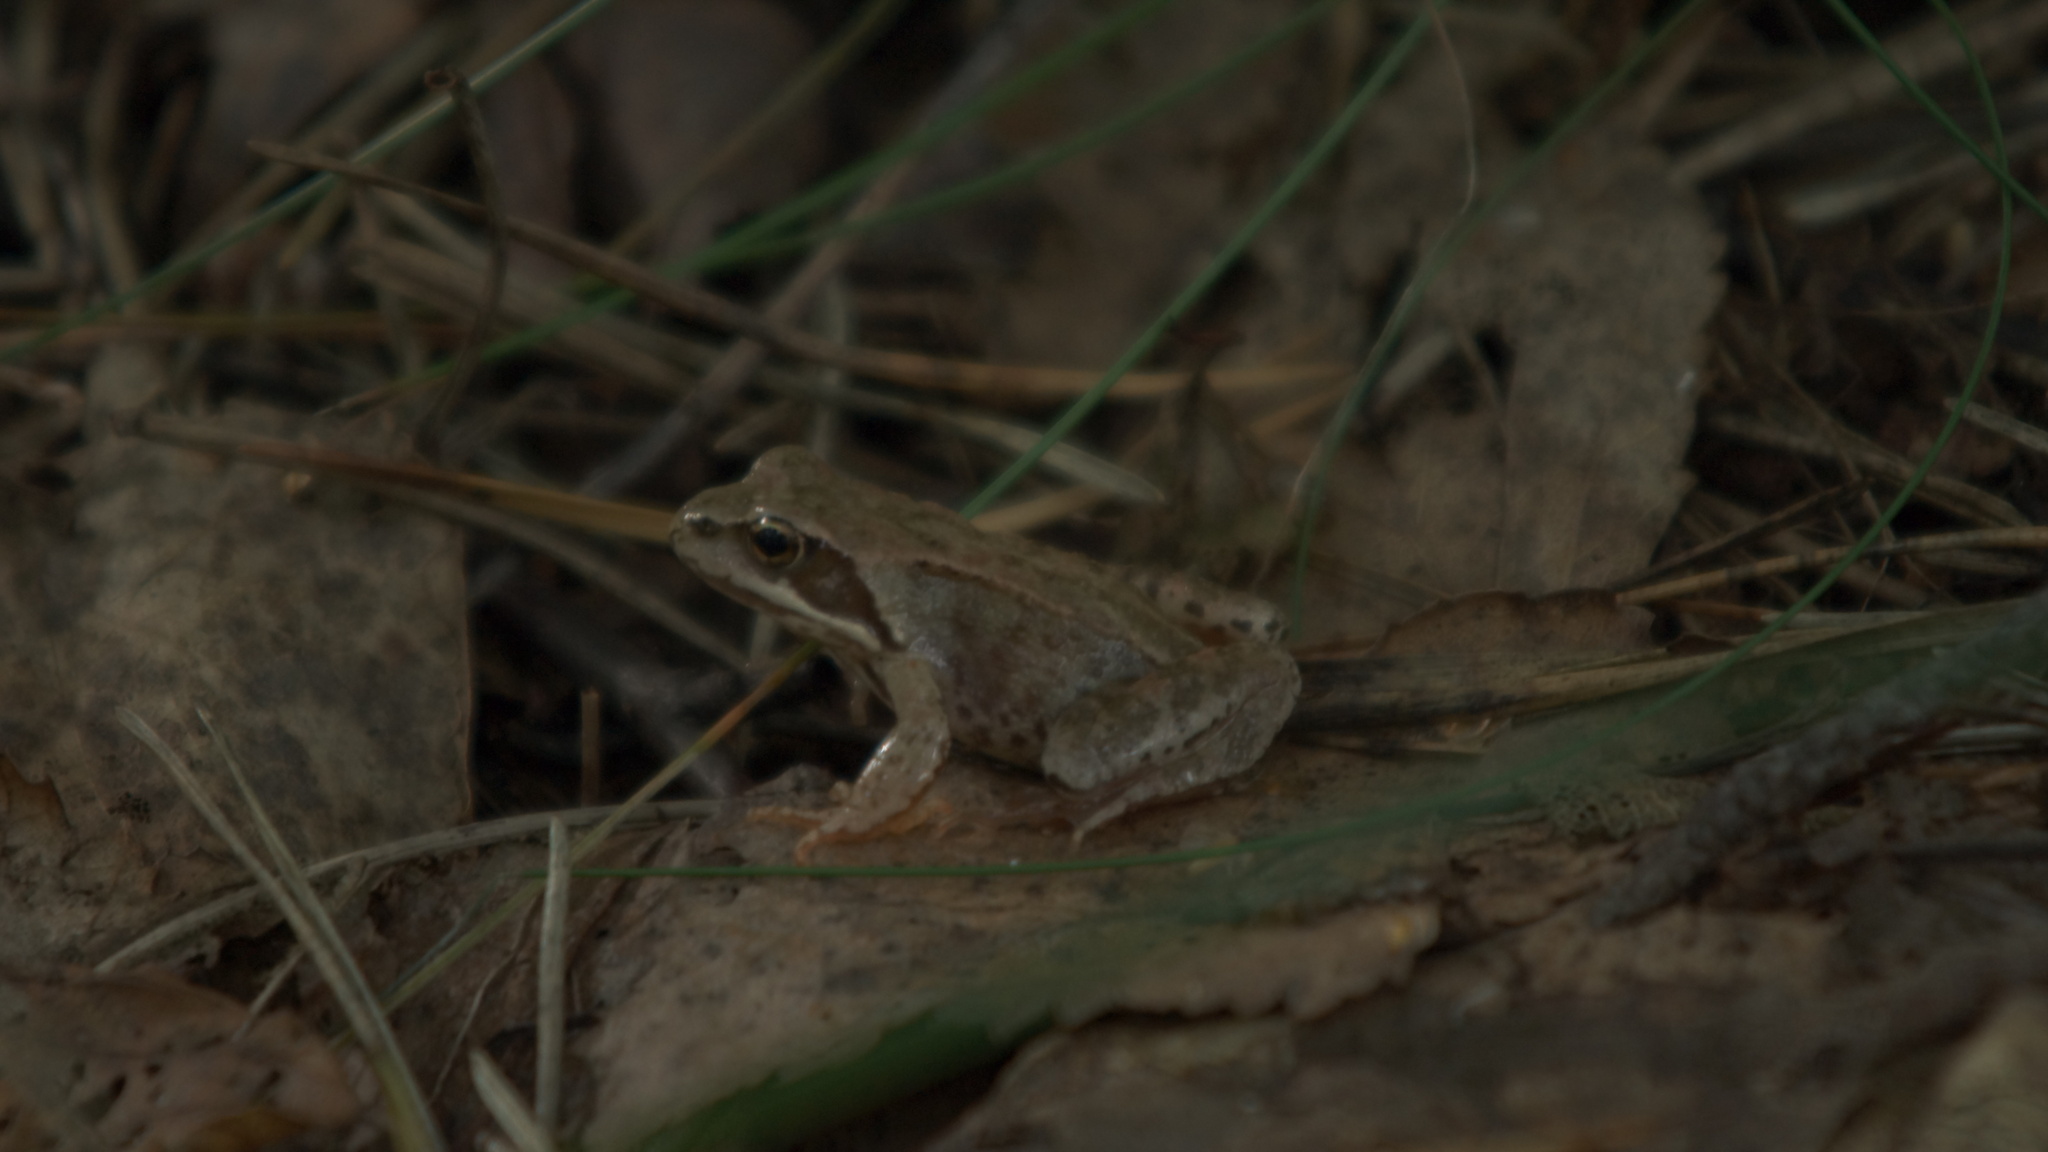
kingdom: Animalia
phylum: Chordata
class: Amphibia
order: Anura
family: Ranidae
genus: Rana
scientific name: Rana temporaria
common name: Common frog
